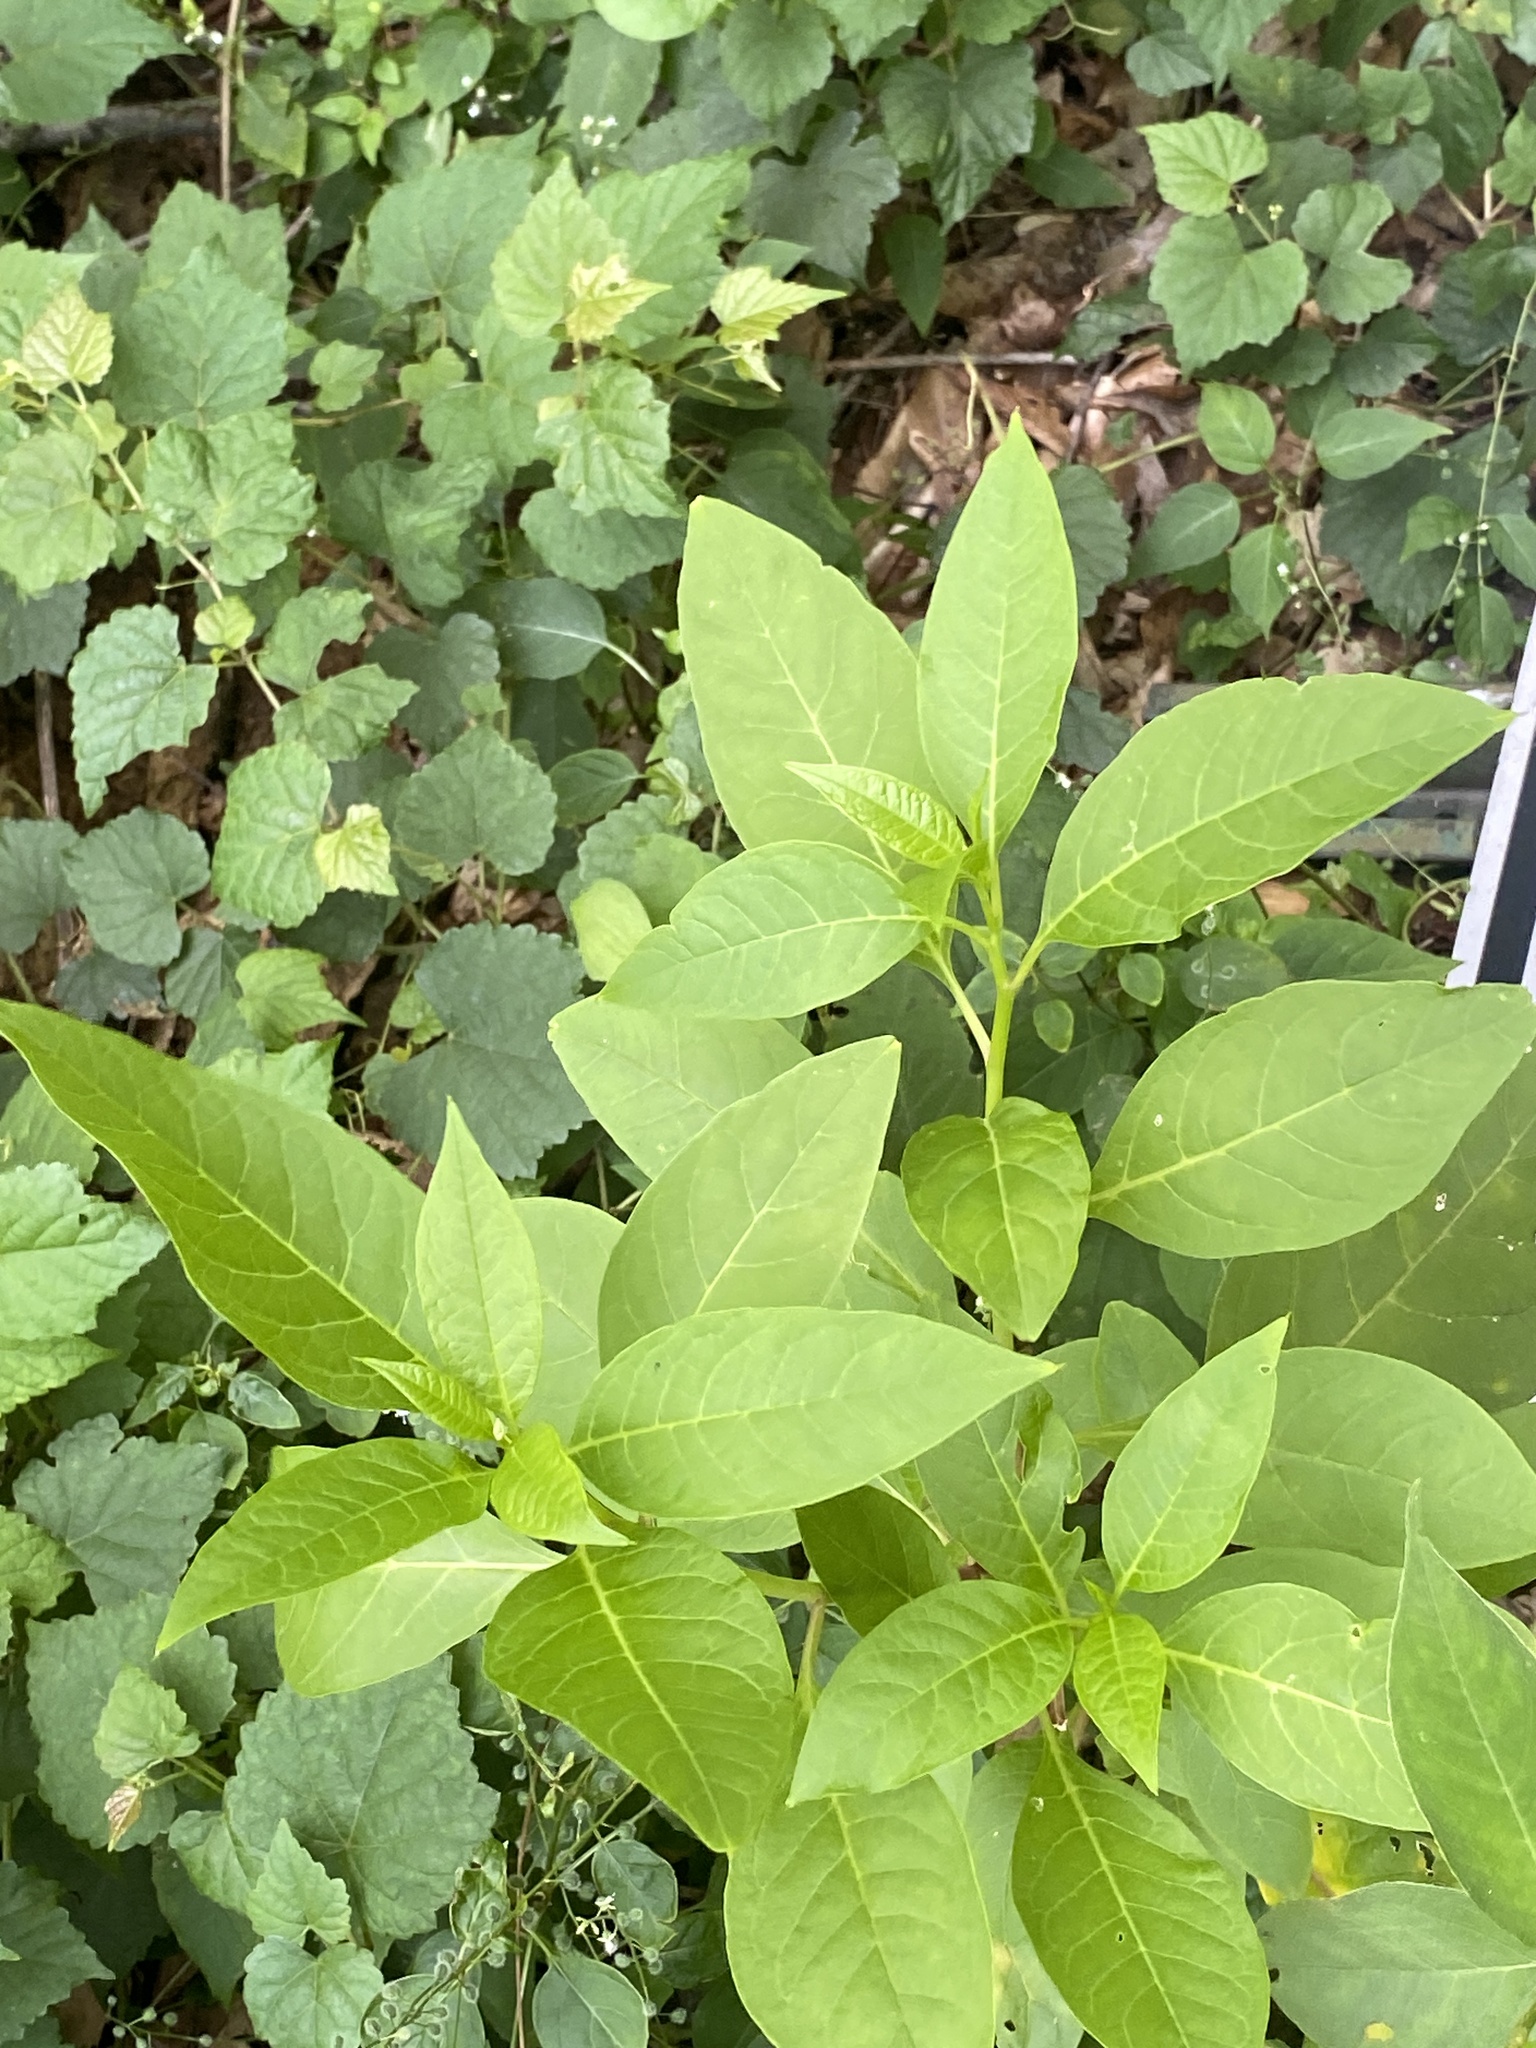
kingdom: Plantae
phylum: Tracheophyta
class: Magnoliopsida
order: Caryophyllales
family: Phytolaccaceae
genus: Phytolacca
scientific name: Phytolacca americana
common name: American pokeweed
